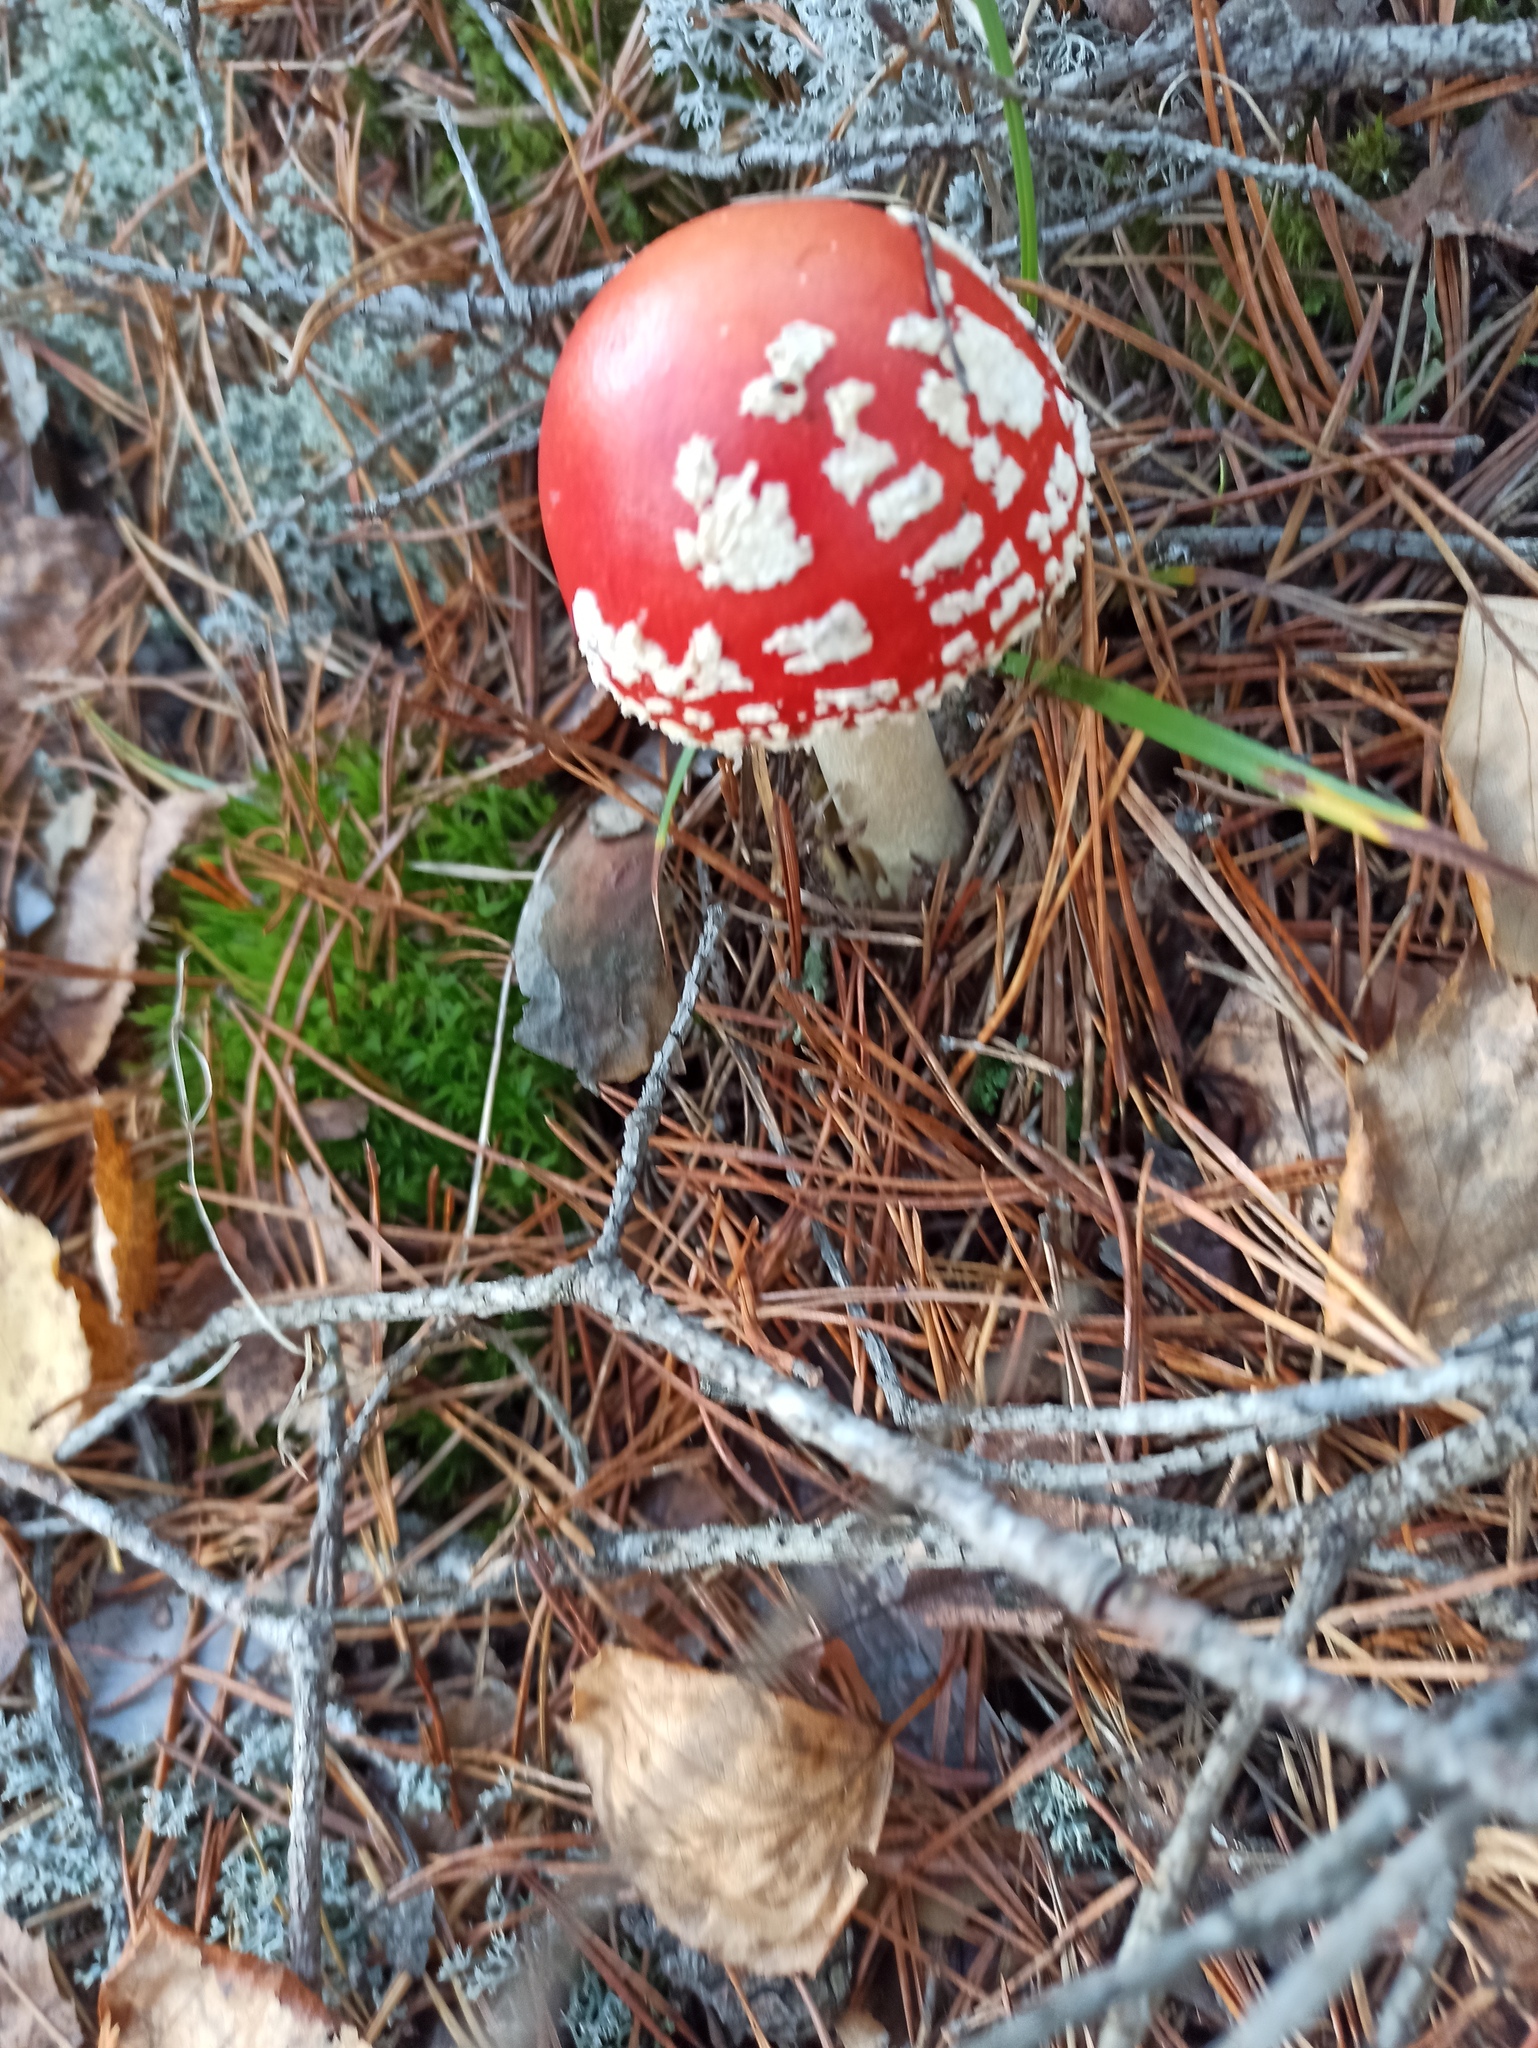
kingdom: Fungi
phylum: Basidiomycota
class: Agaricomycetes
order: Agaricales
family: Amanitaceae
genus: Amanita
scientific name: Amanita muscaria
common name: Fly agaric
